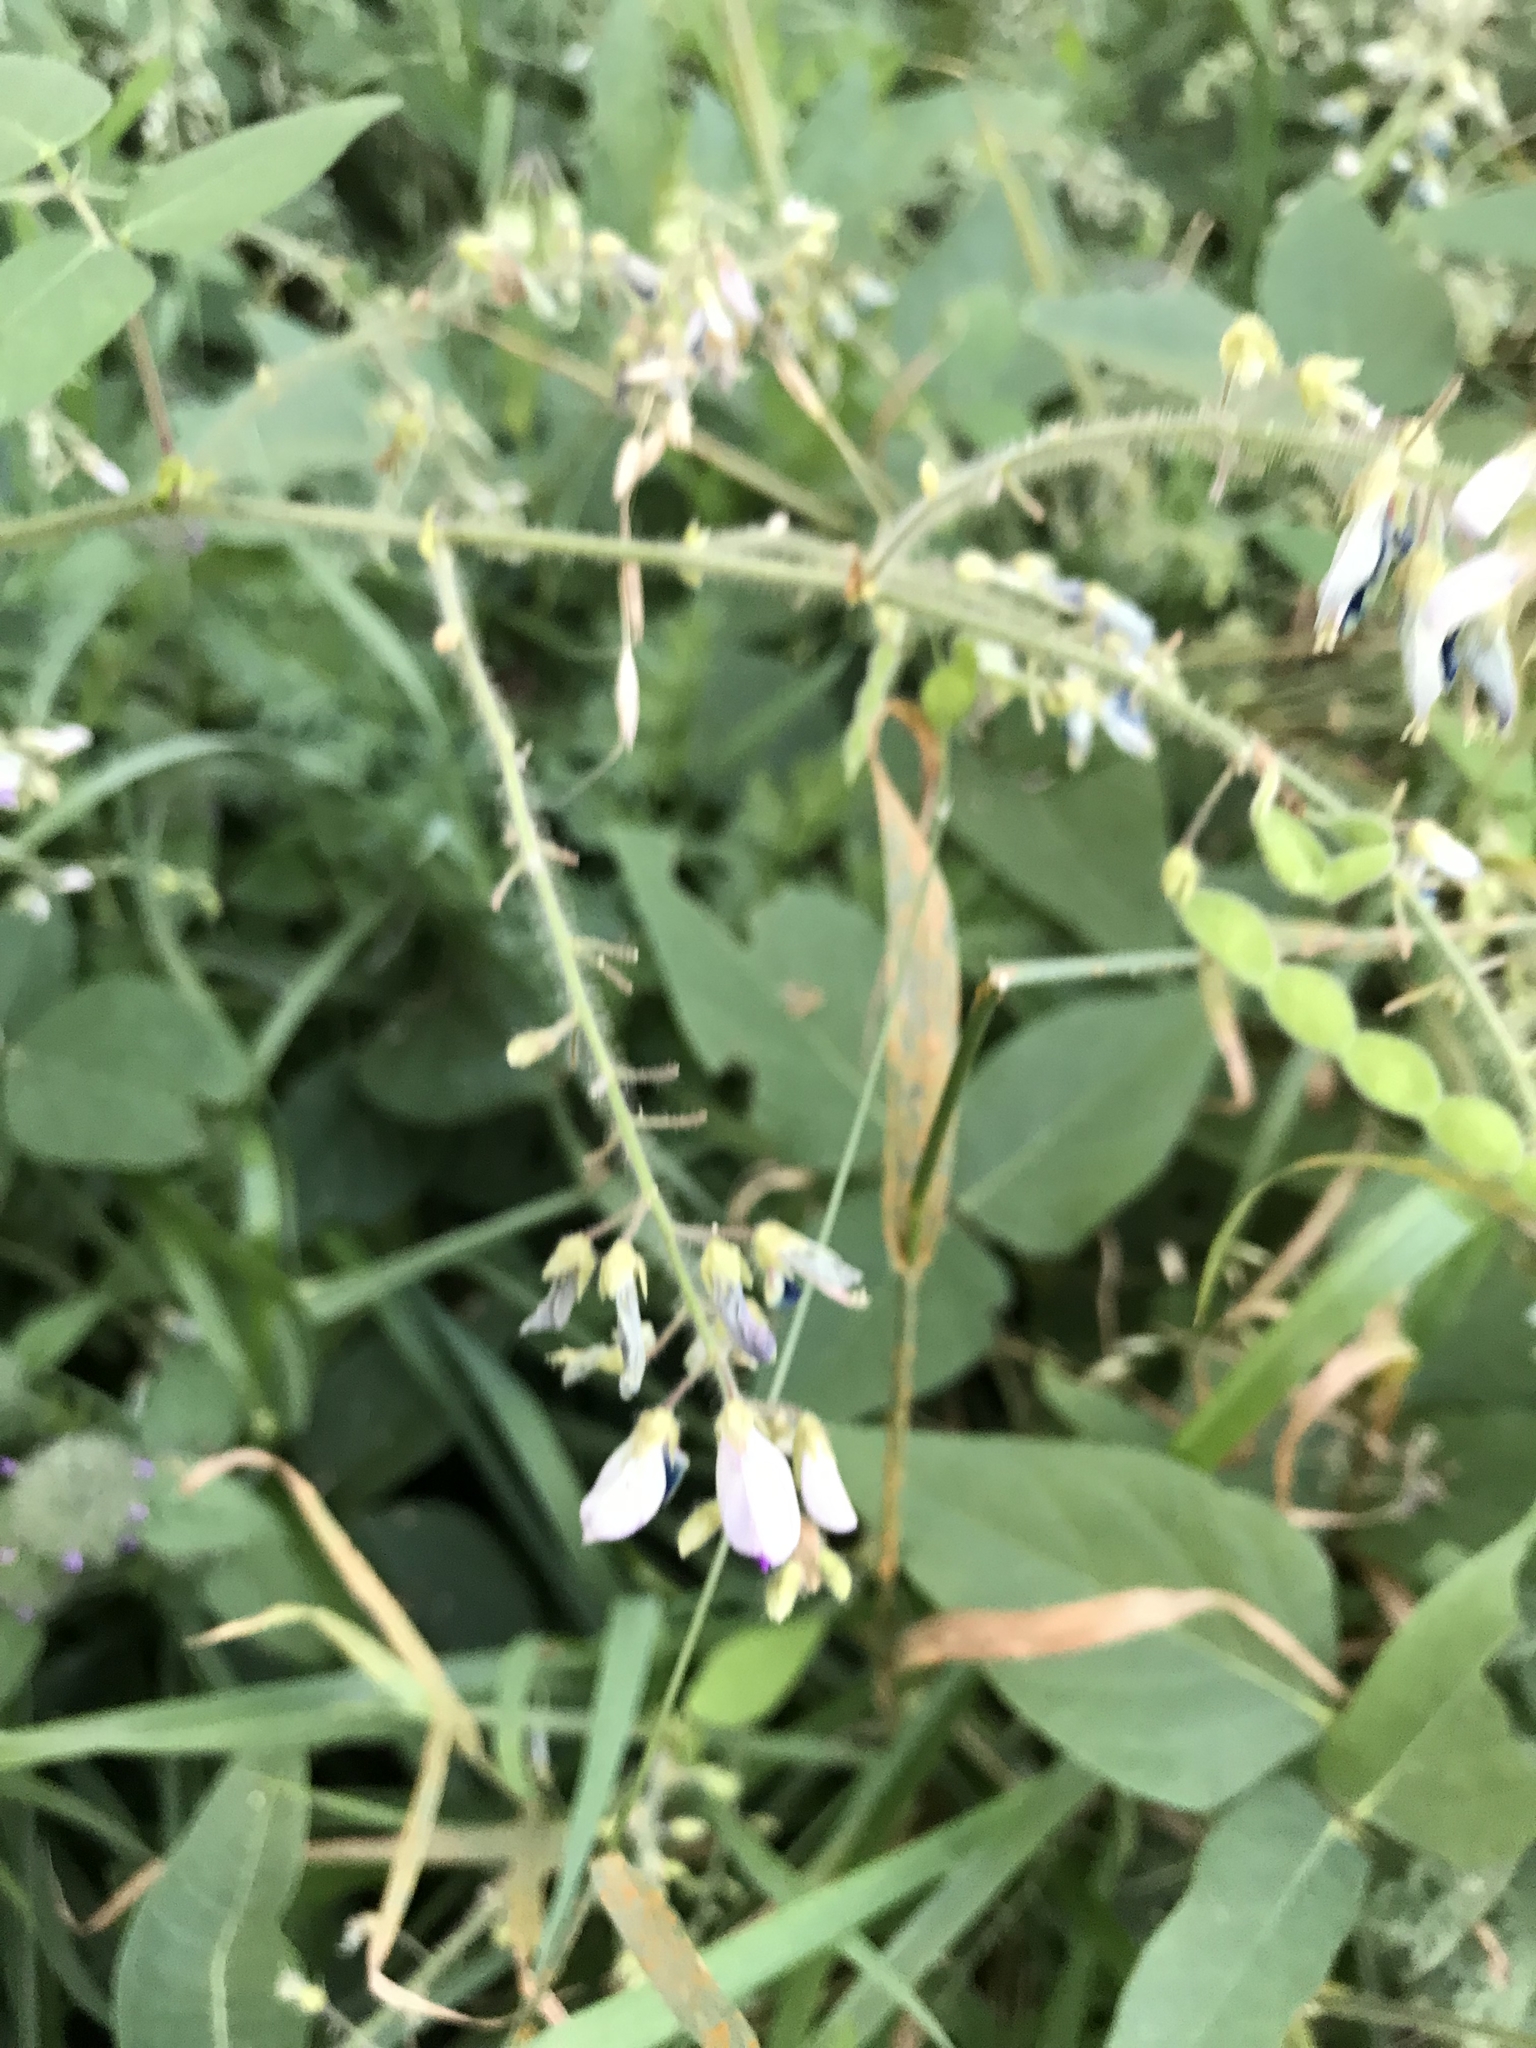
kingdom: Plantae
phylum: Tracheophyta
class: Magnoliopsida
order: Fabales
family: Fabaceae
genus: Desmodium
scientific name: Desmodium canescens
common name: Hoary tick-clover
